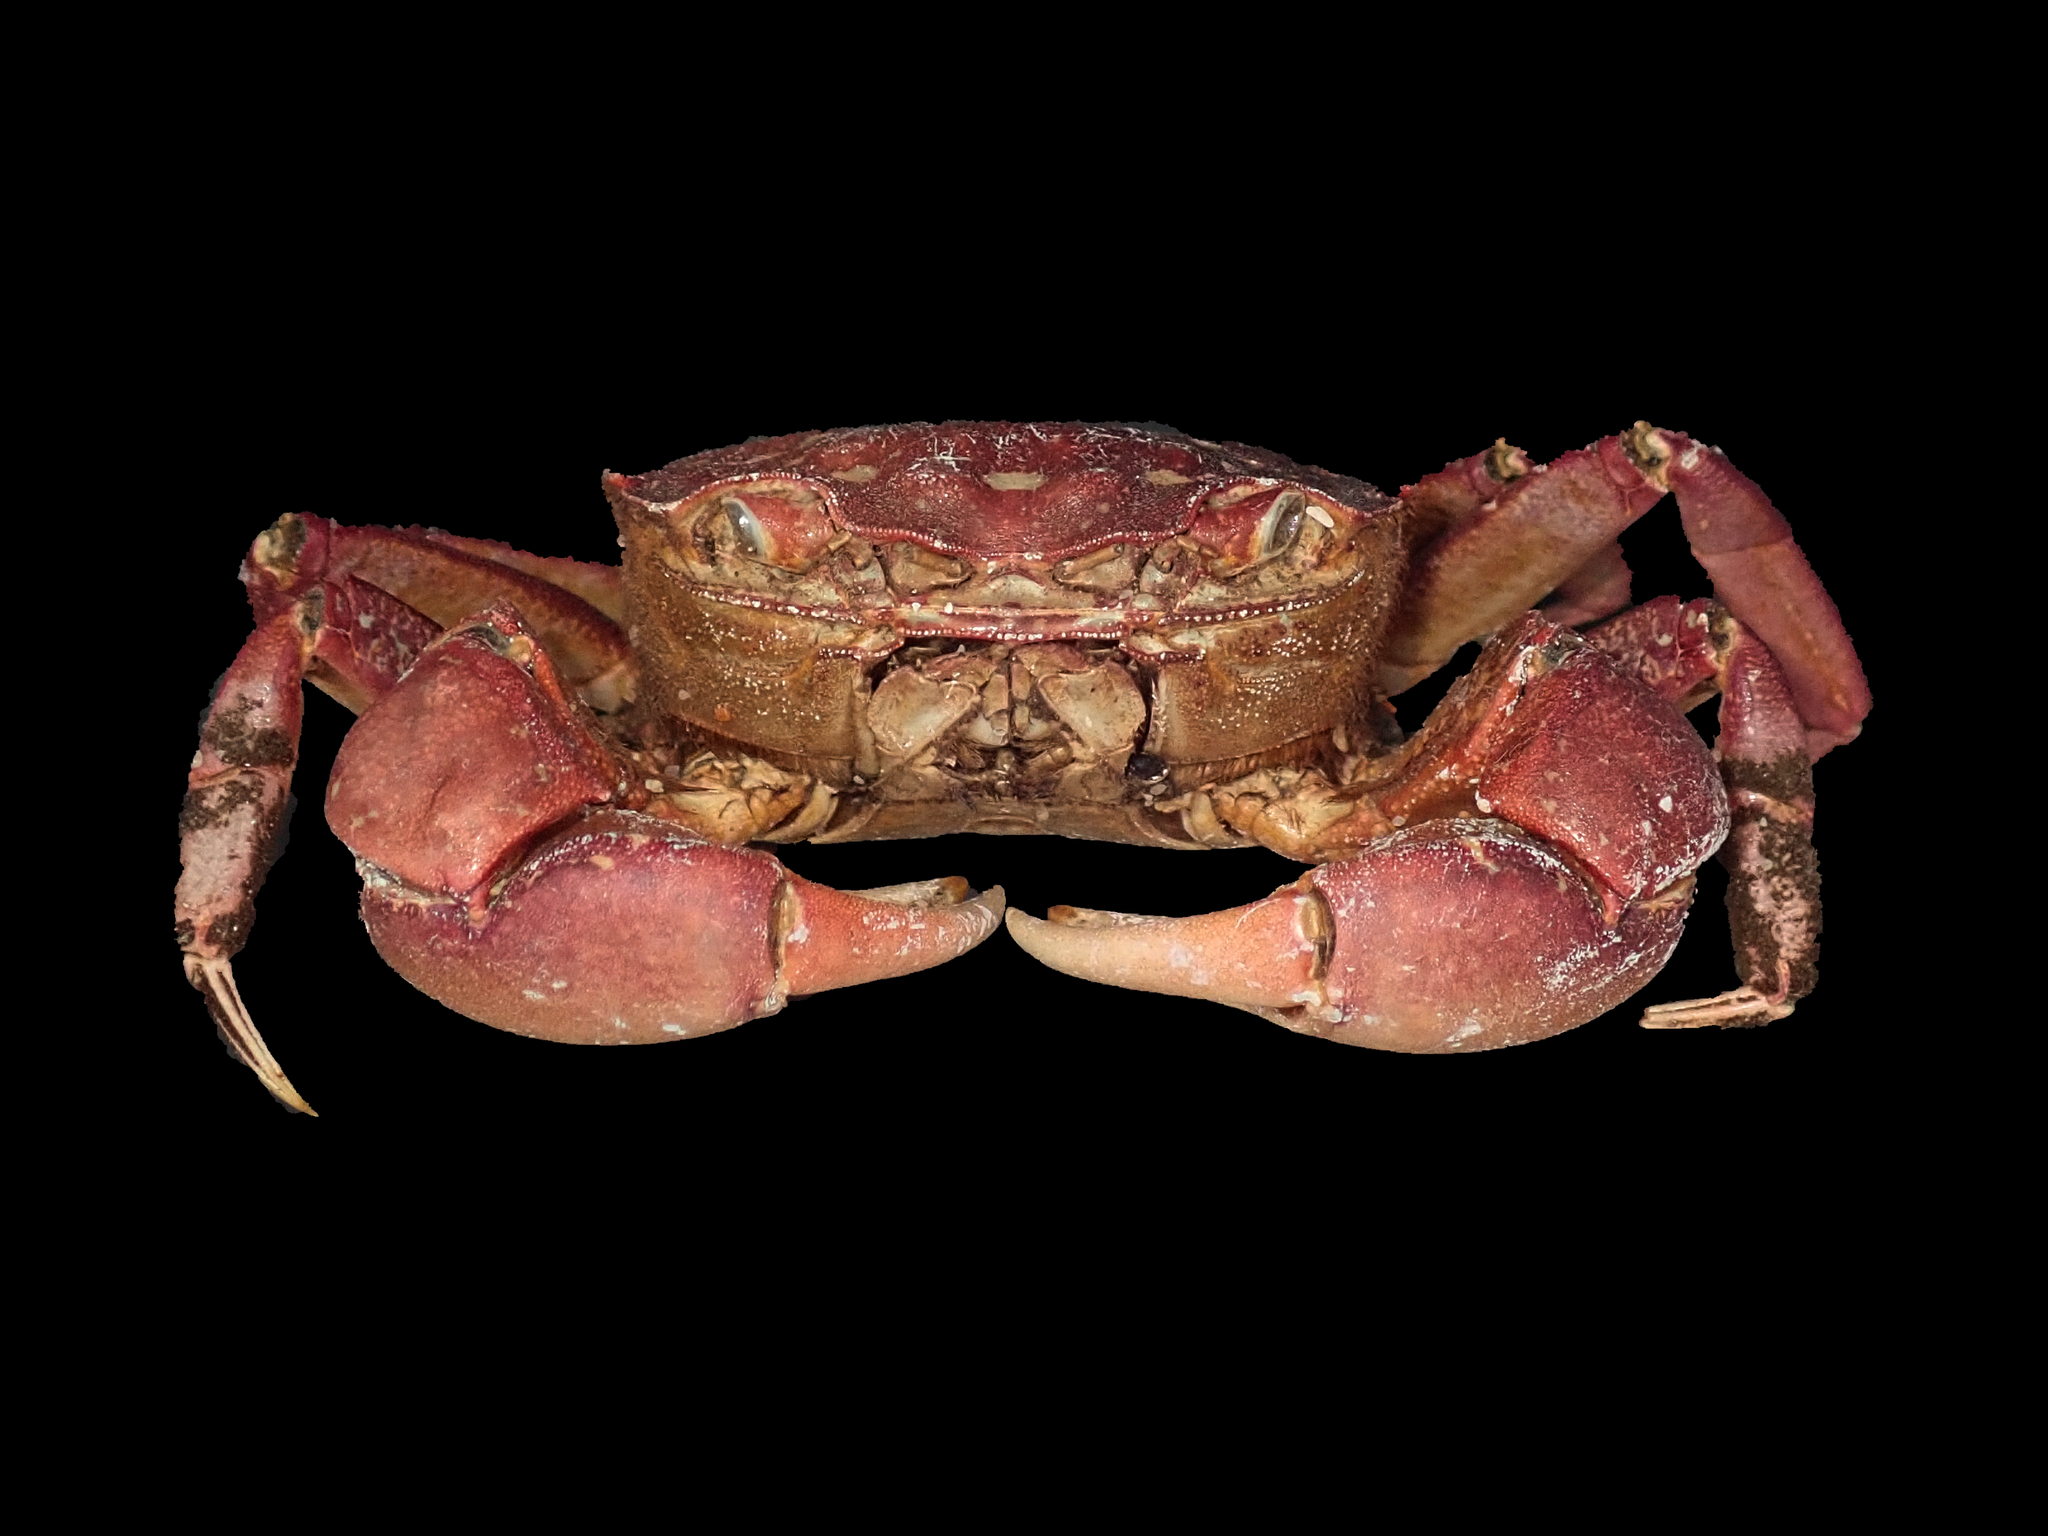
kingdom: Animalia
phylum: Arthropoda
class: Malacostraca
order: Decapoda
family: Varunidae
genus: Paragrapsus
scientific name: Paragrapsus laevis
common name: Smooth shore crab
